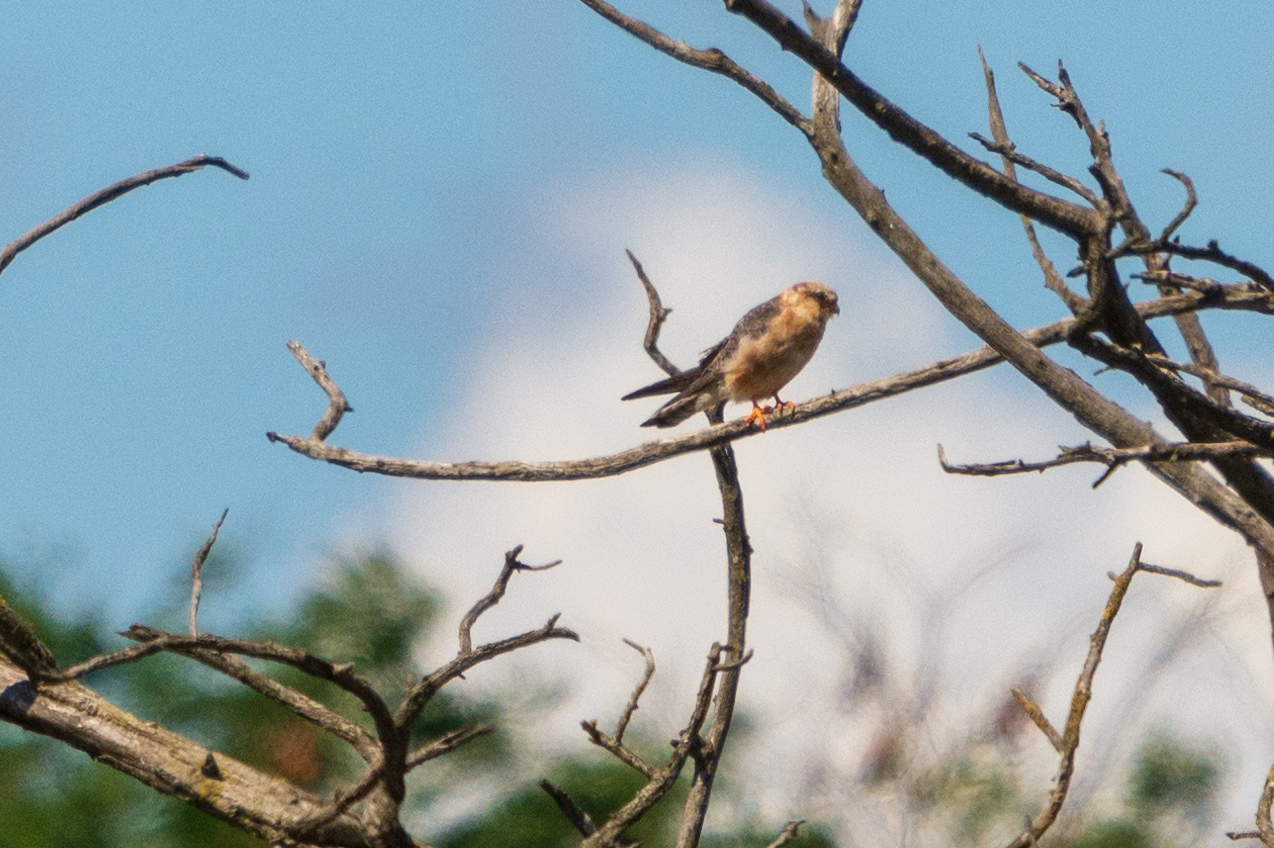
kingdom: Animalia
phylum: Chordata
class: Aves
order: Falconiformes
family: Falconidae
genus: Falco
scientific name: Falco vespertinus
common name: Red-footed falcon
